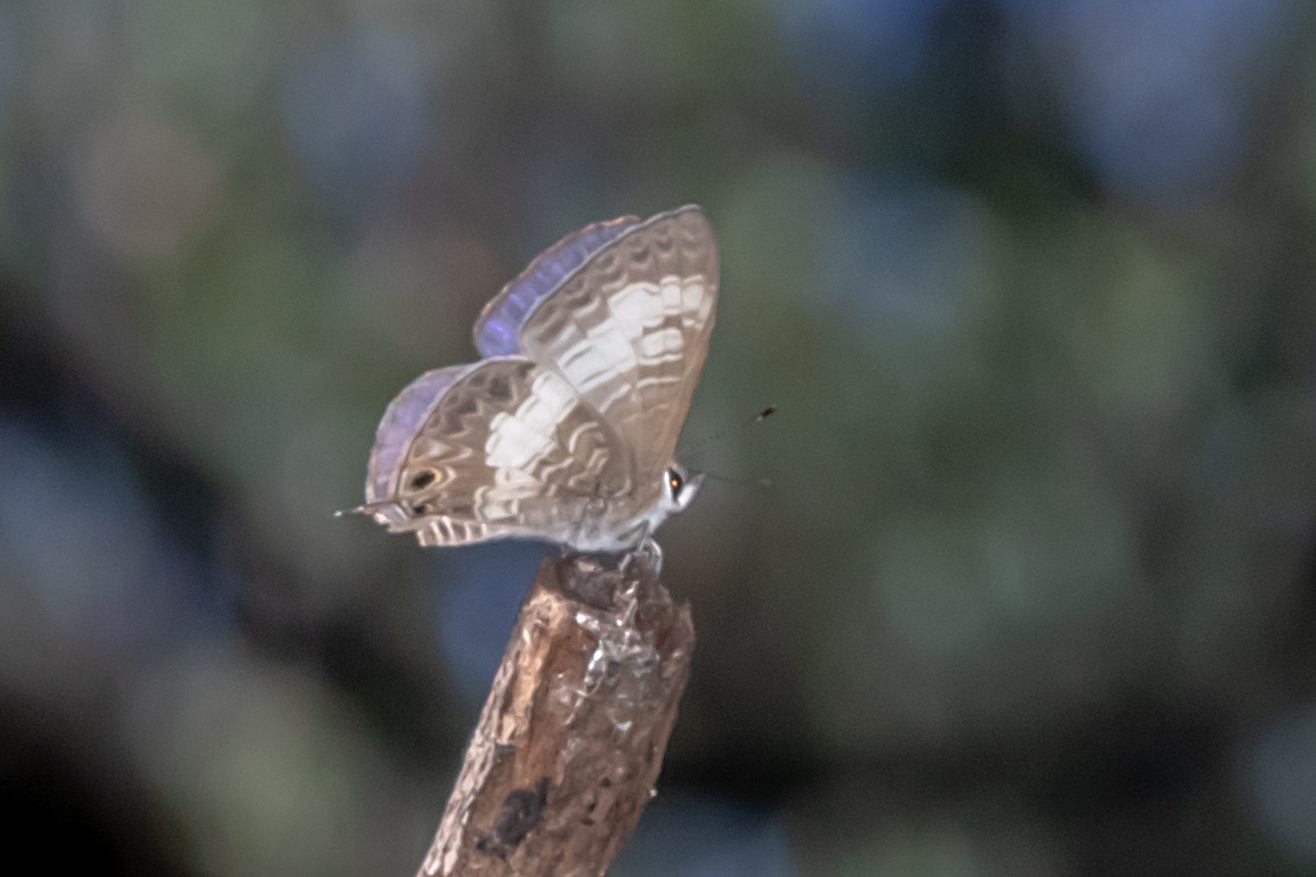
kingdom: Animalia
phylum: Arthropoda
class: Insecta
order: Lepidoptera
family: Lycaenidae
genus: Nacaduba
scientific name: Nacaduba kurava
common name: Transparent 6-line blue
